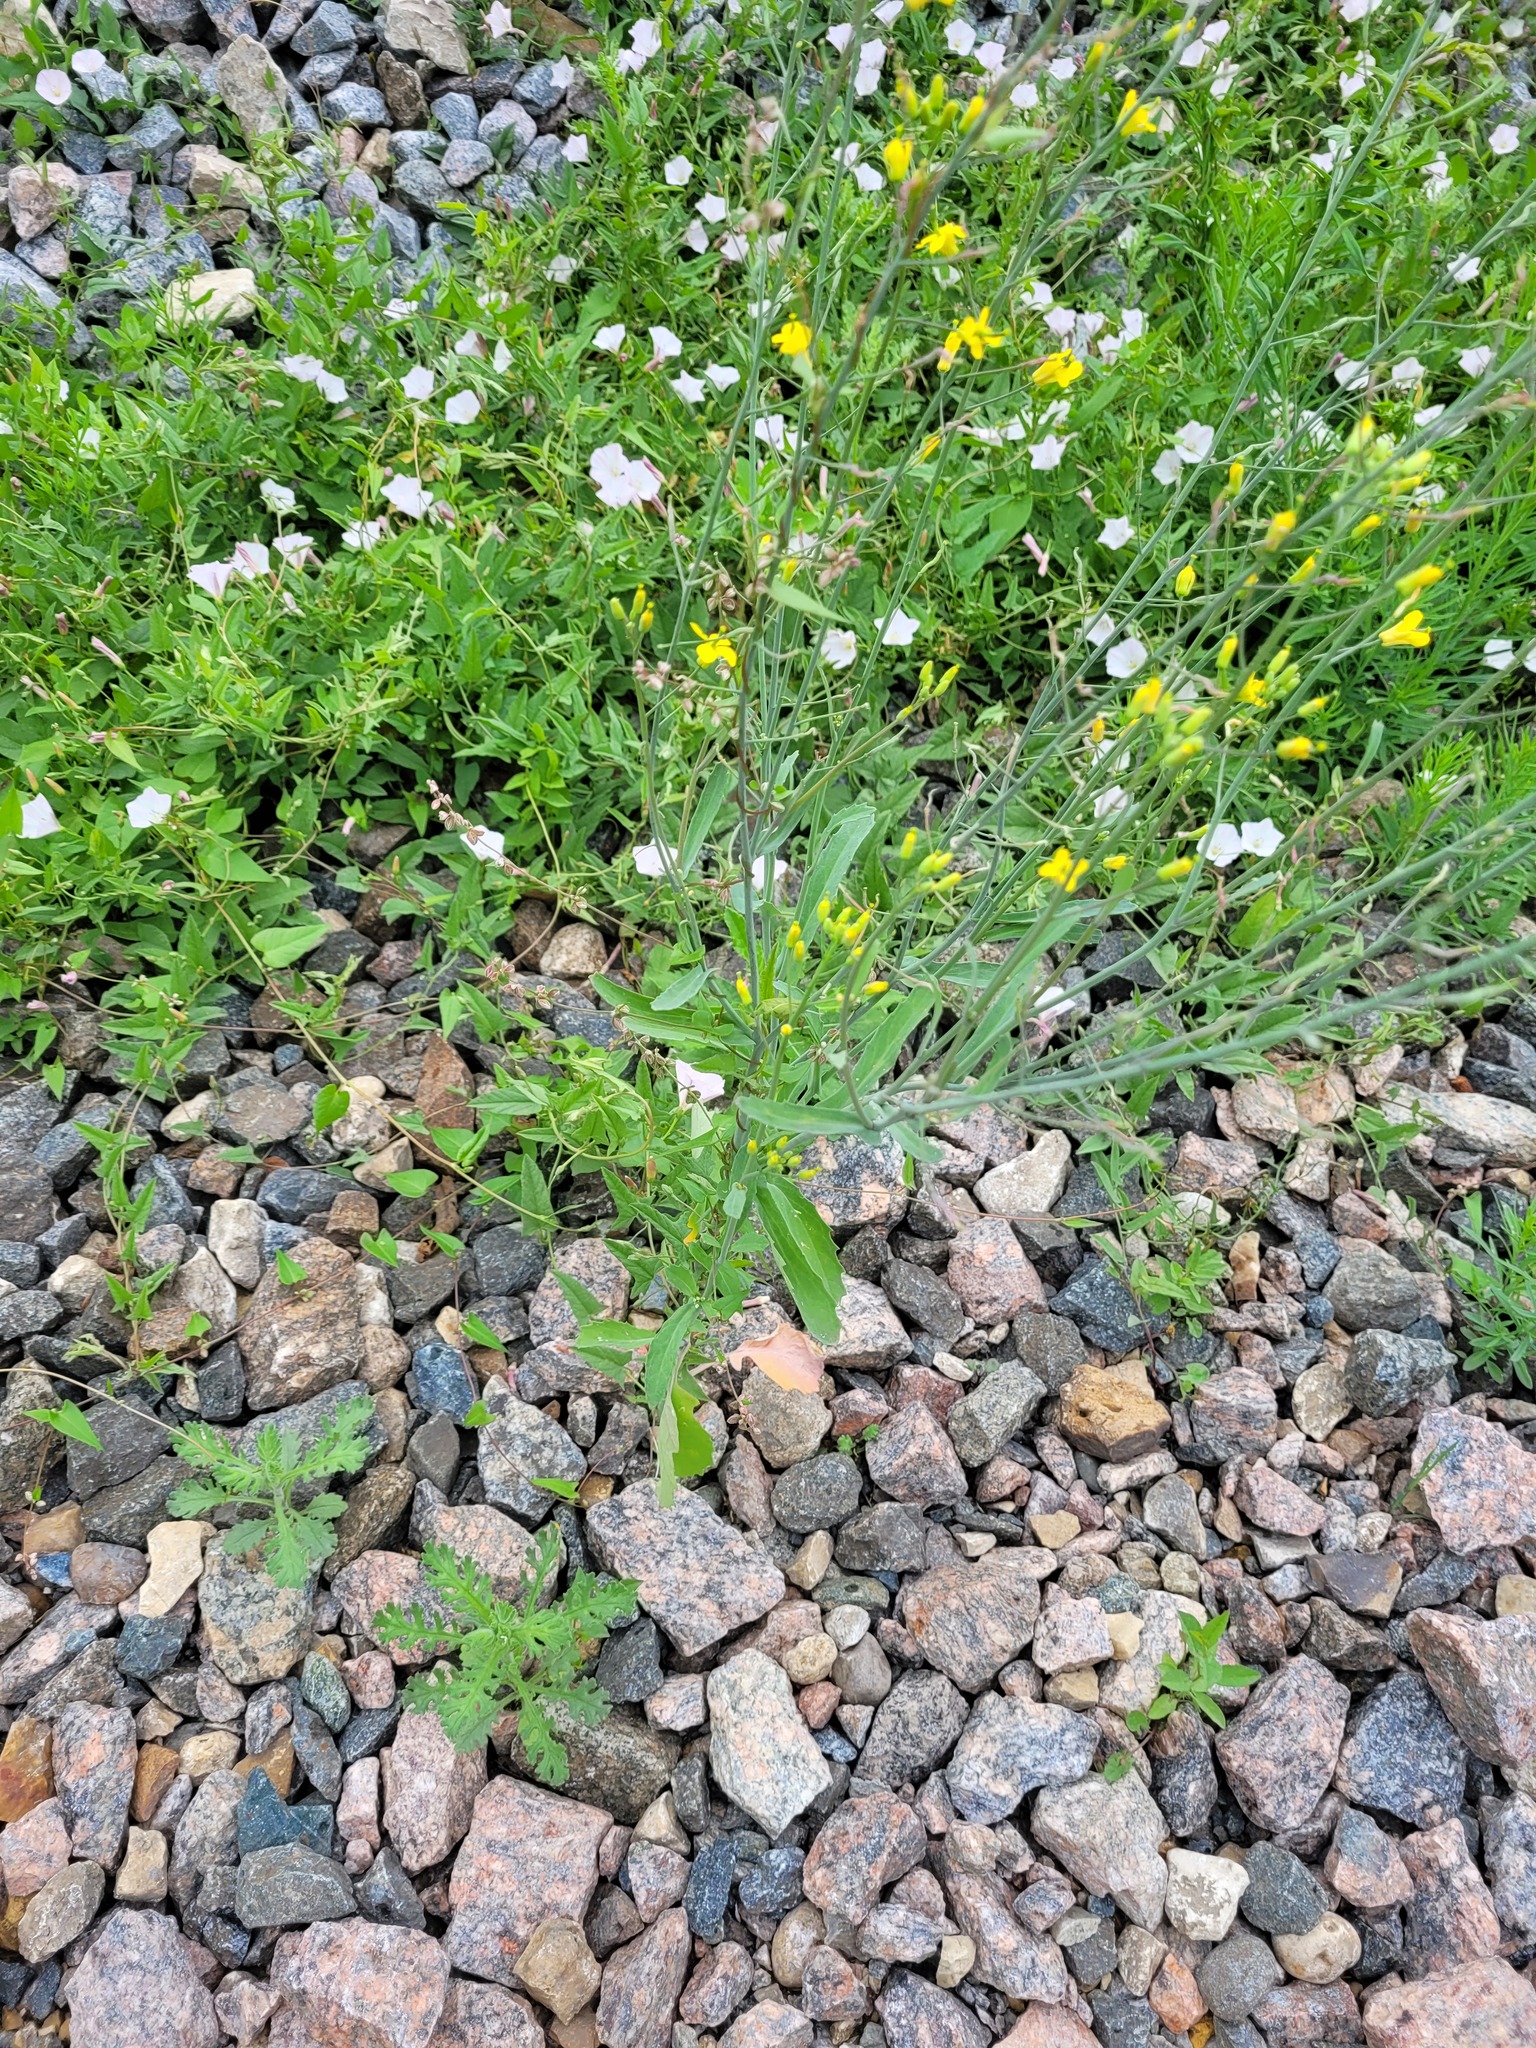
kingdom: Plantae
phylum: Tracheophyta
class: Magnoliopsida
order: Brassicales
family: Brassicaceae
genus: Brassica
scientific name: Brassica napus
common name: Rape
